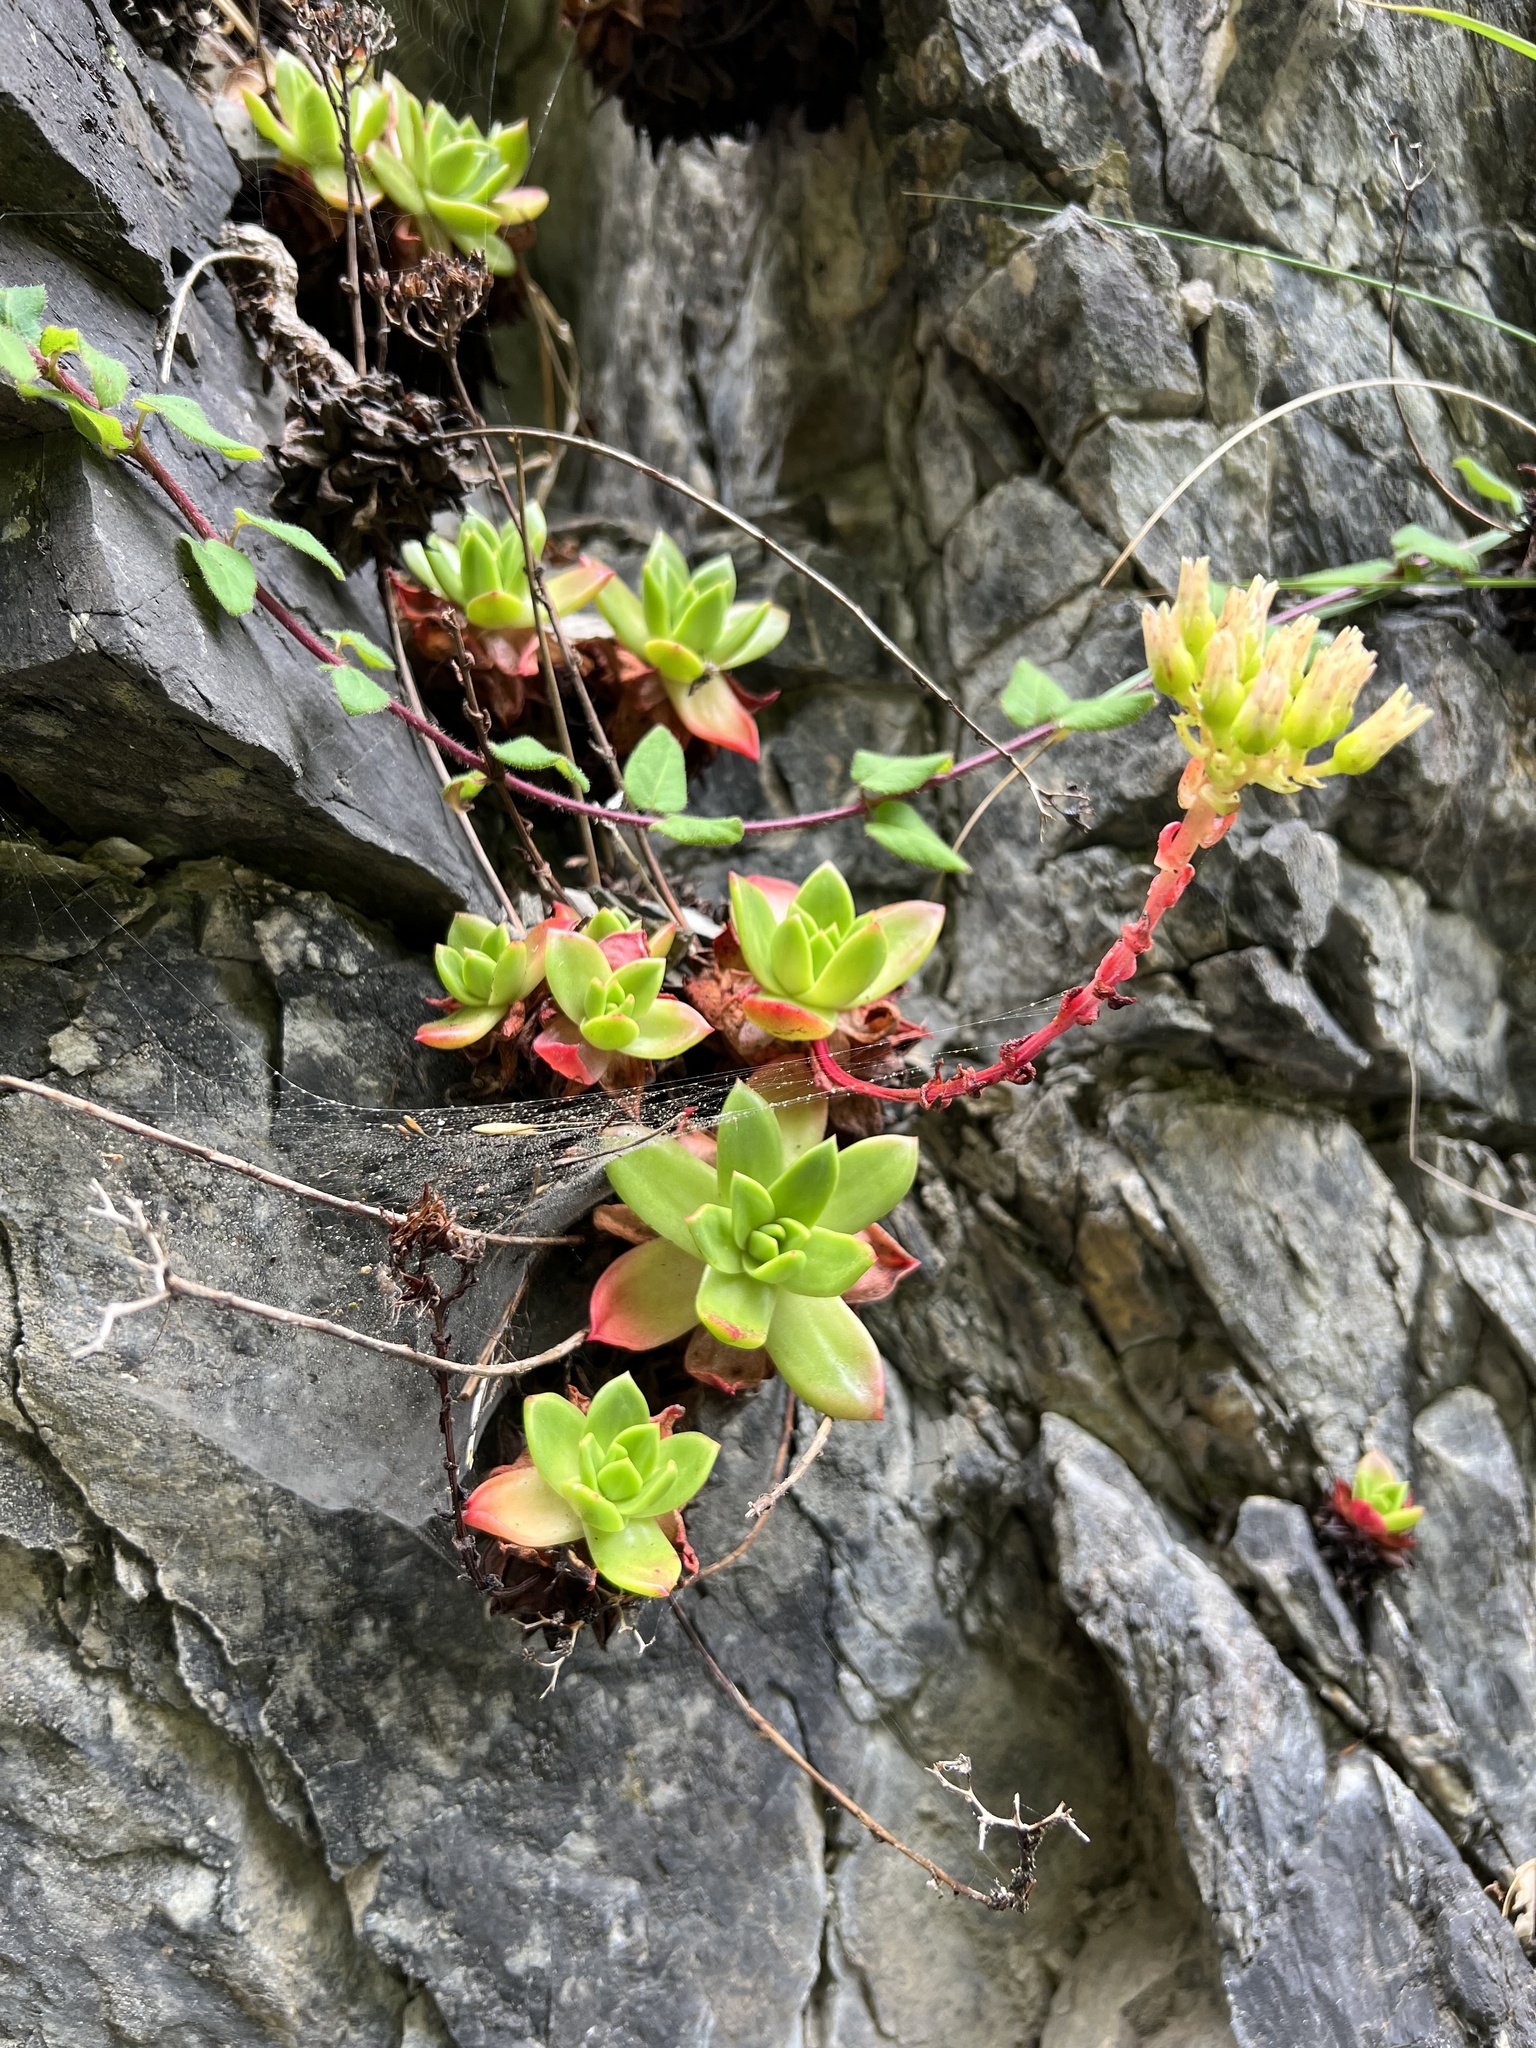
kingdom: Plantae
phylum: Tracheophyta
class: Magnoliopsida
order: Saxifragales
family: Crassulaceae
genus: Dudleya
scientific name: Dudleya farinosa
